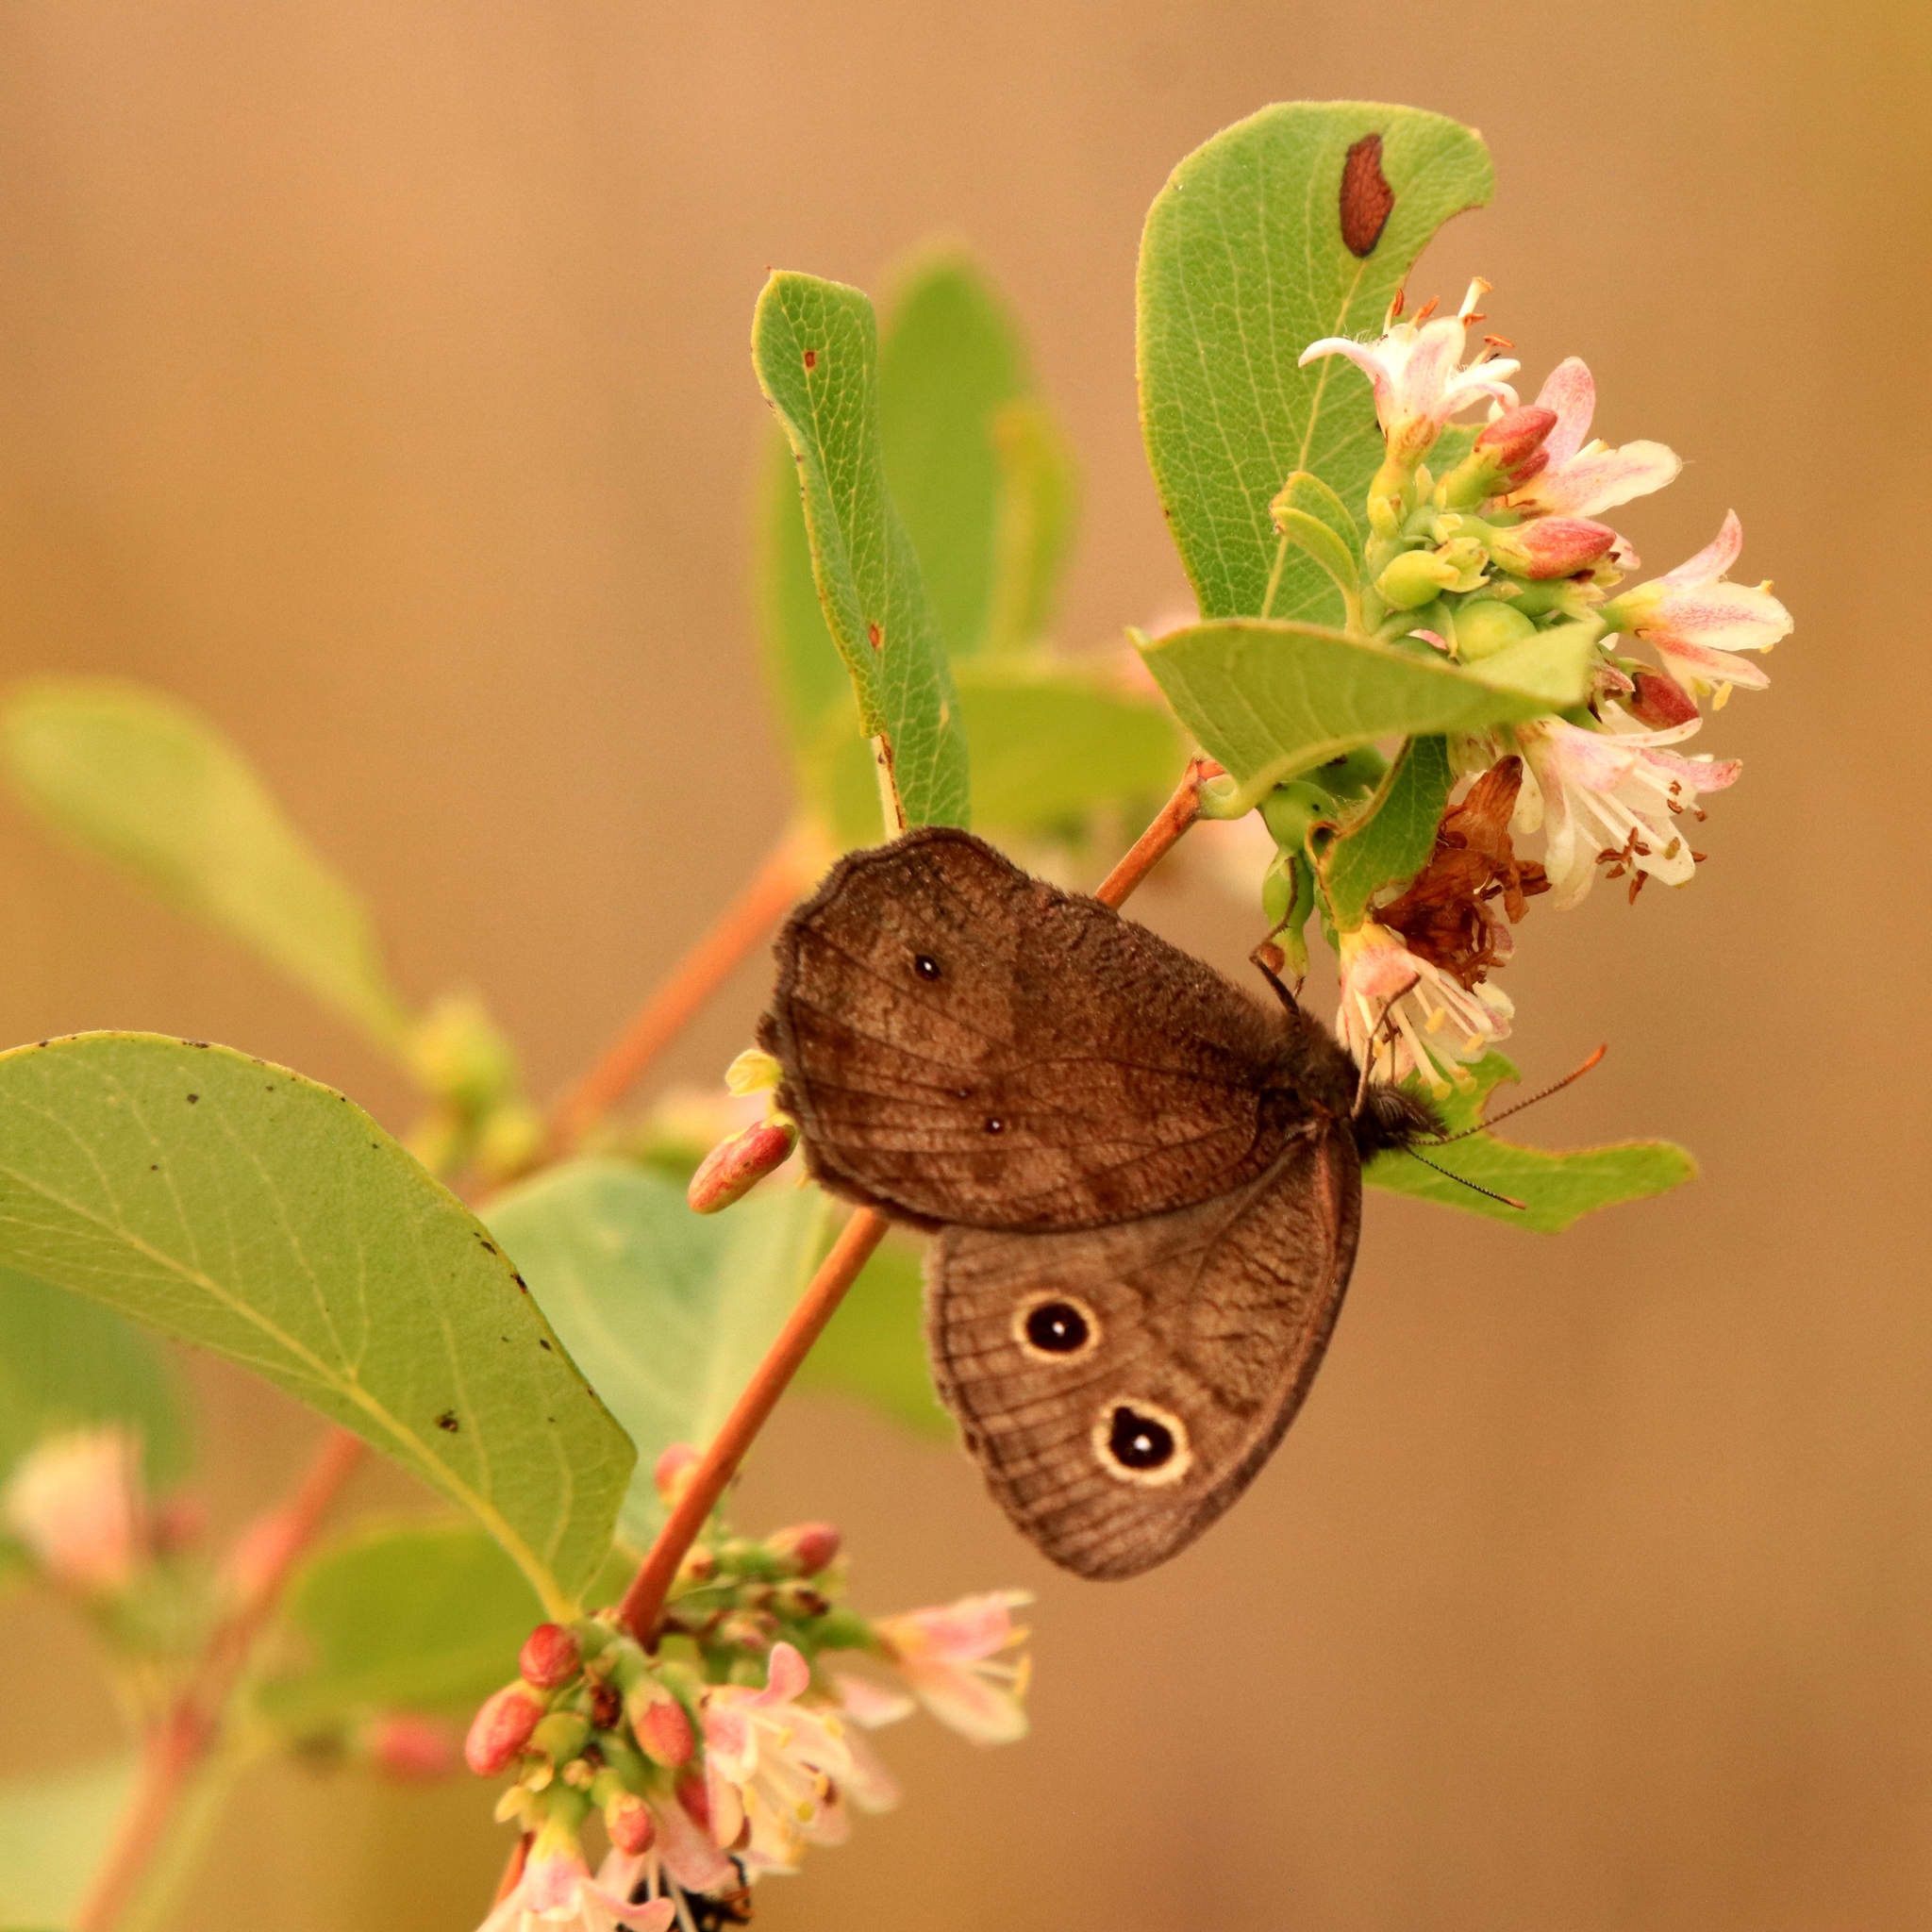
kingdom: Animalia
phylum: Arthropoda
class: Insecta
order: Lepidoptera
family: Nymphalidae
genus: Cercyonis
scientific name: Cercyonis pegala
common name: Common wood-nymph
